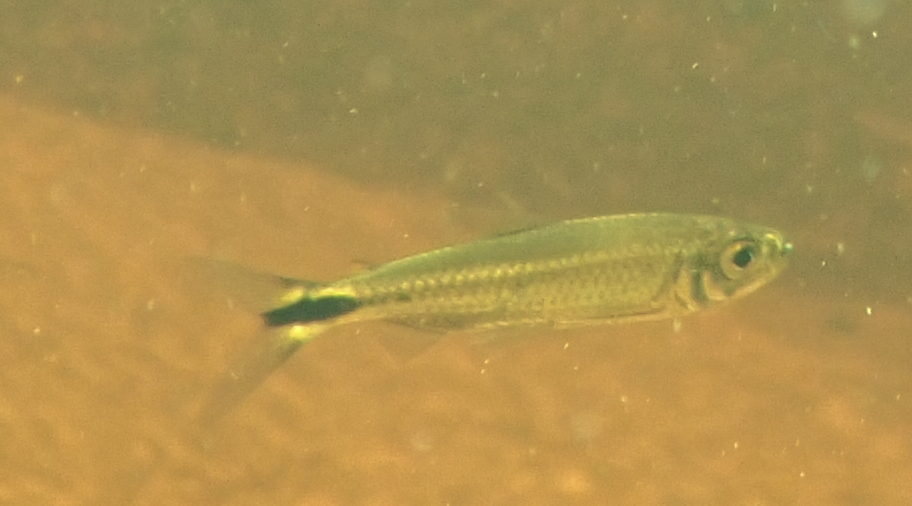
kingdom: Animalia
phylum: Chordata
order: Characiformes
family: Alestidae
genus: Alestes
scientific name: Alestes
